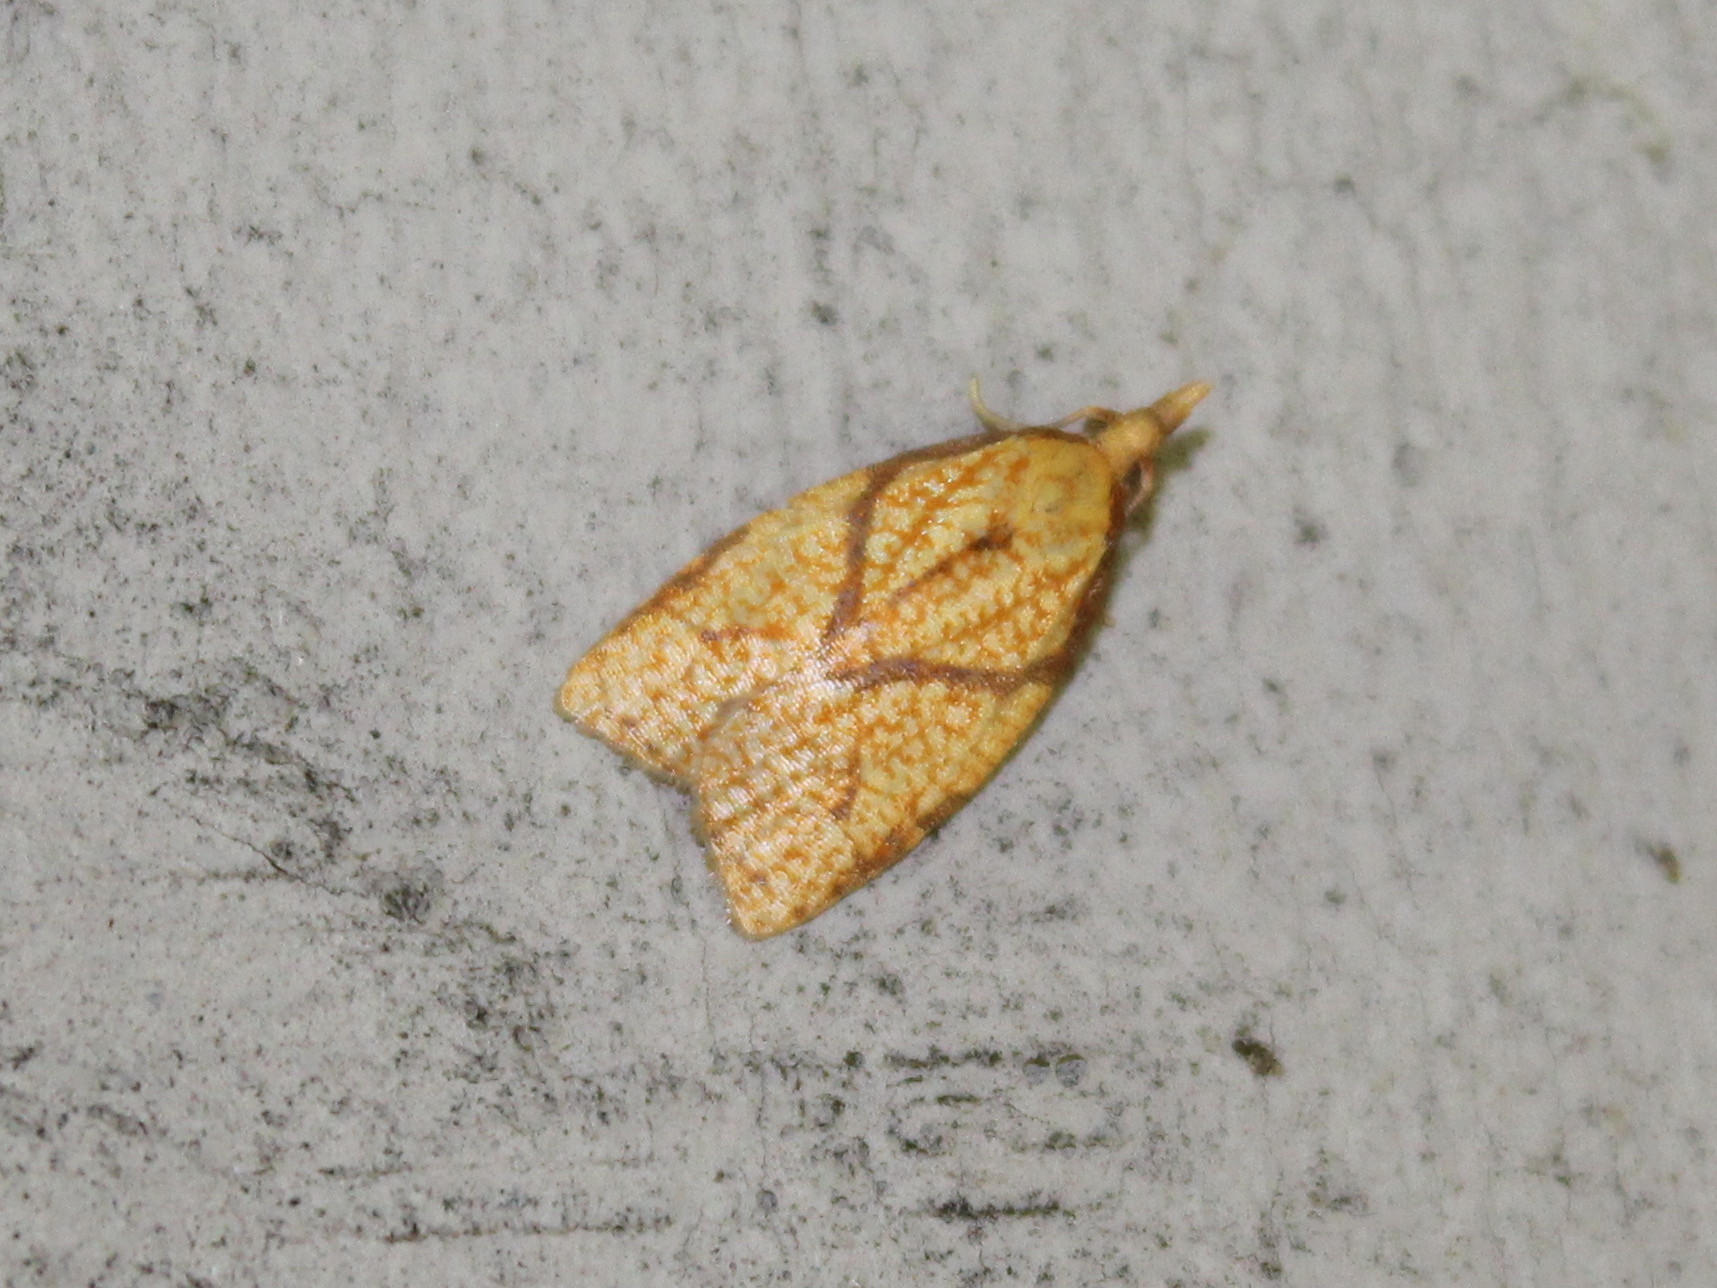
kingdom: Animalia
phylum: Arthropoda
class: Insecta
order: Lepidoptera
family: Tortricidae
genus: Cenopis
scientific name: Cenopis reticulatana
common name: Reticulated fruitworm moth
